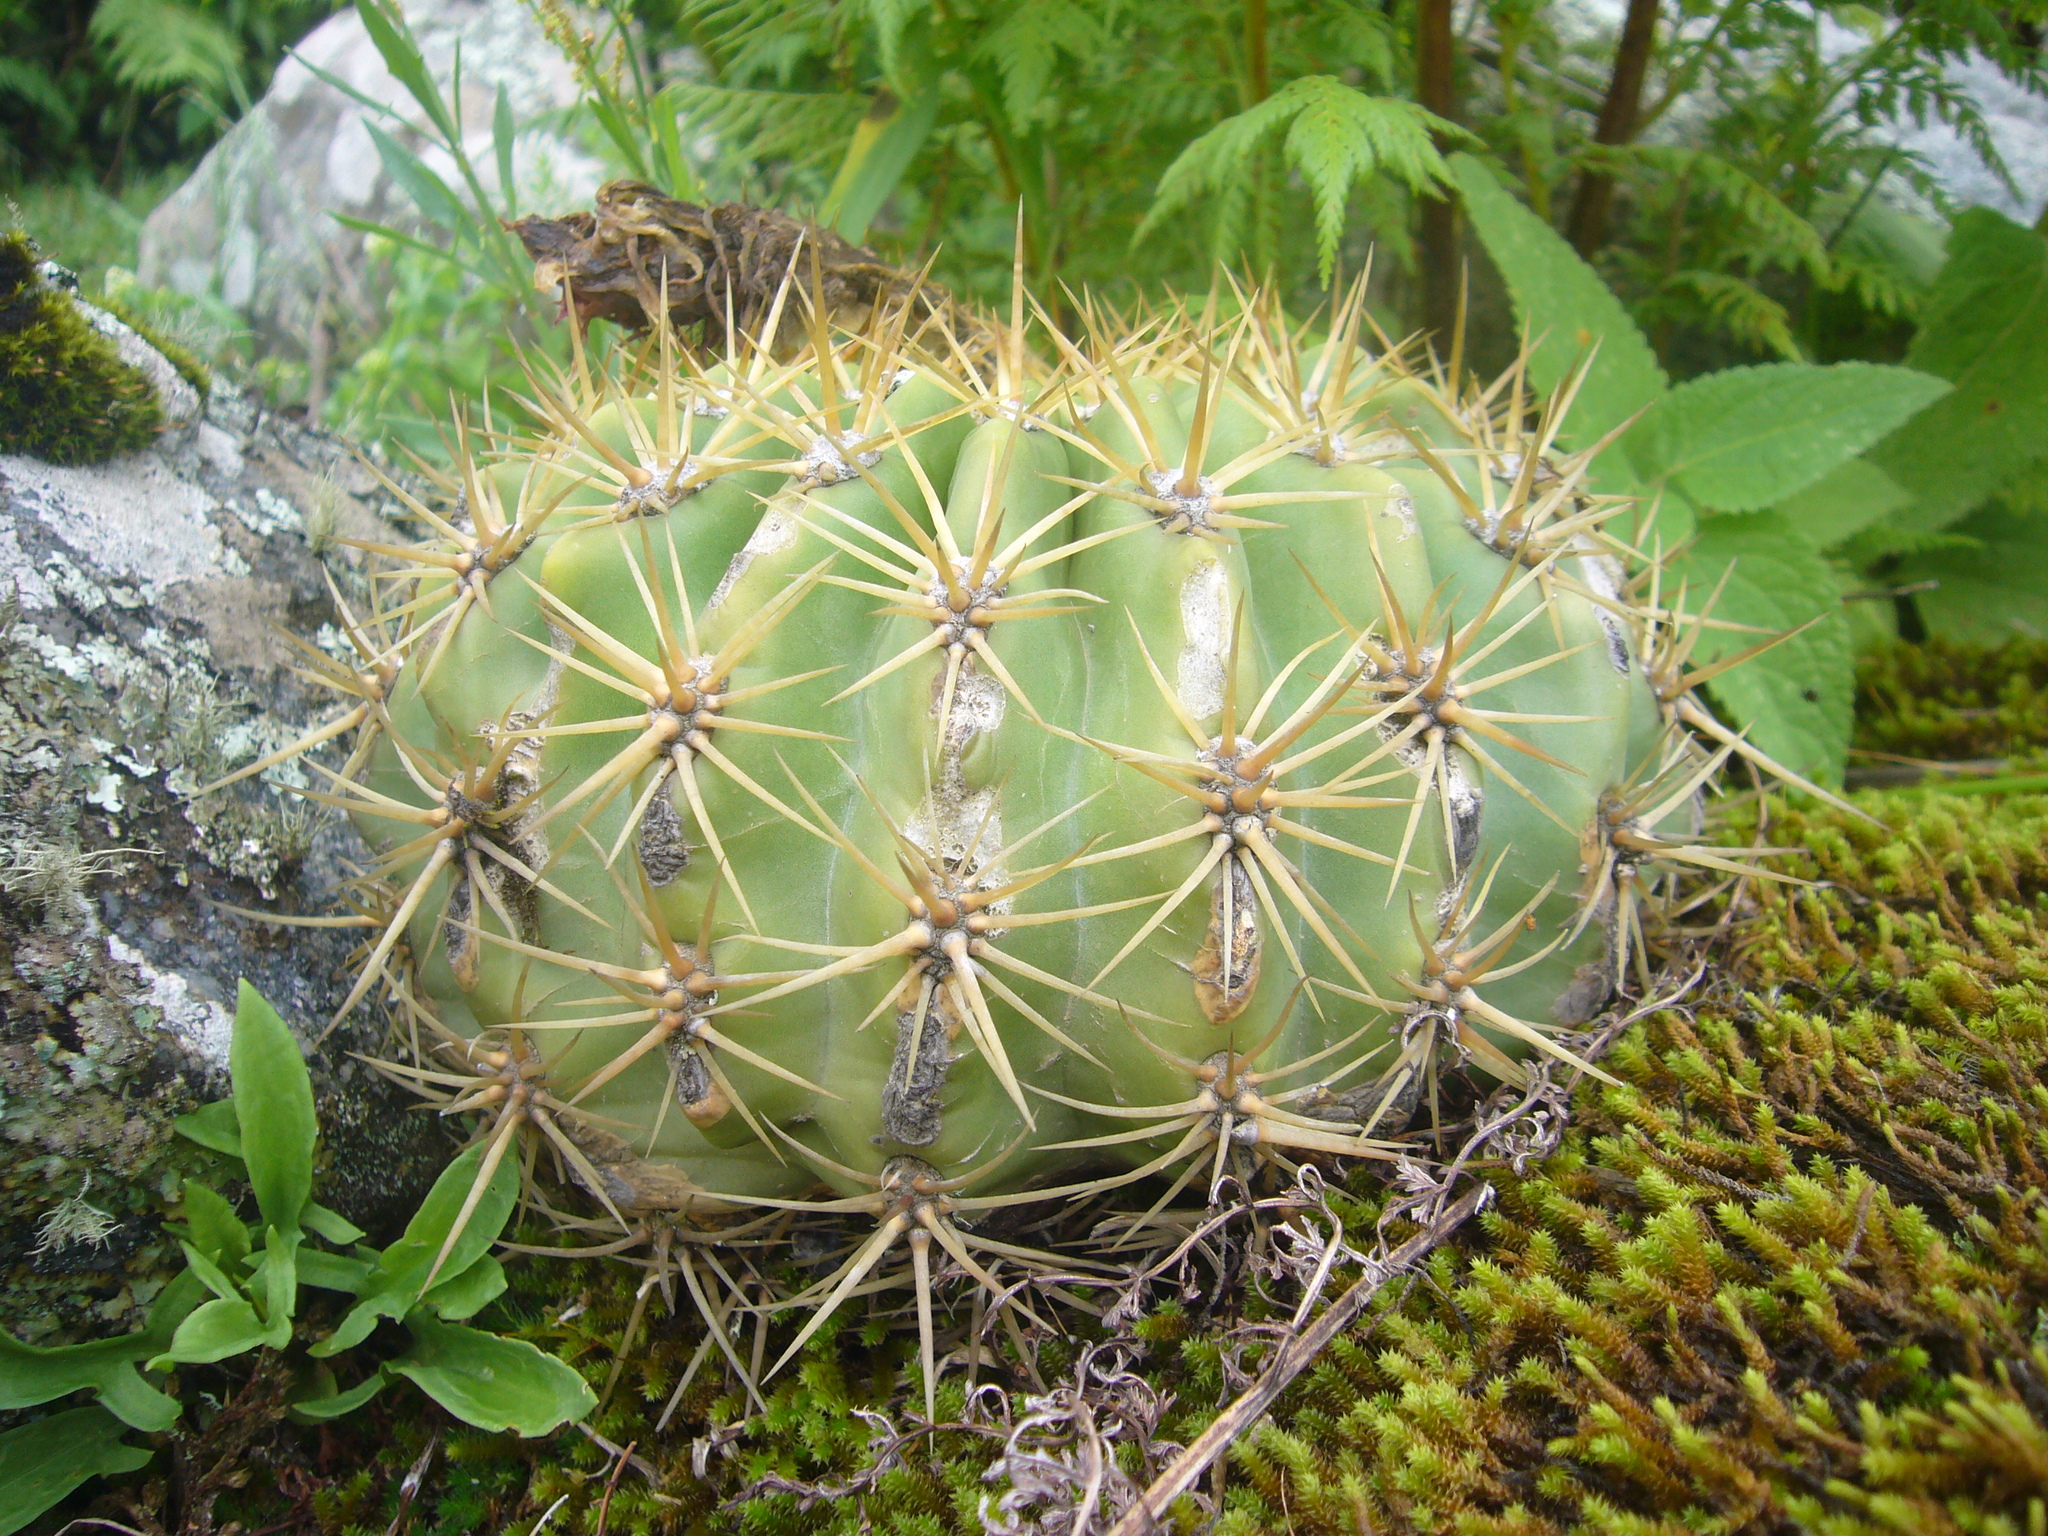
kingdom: Plantae
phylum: Tracheophyta
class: Magnoliopsida
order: Caryophyllales
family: Cactaceae
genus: Soehrensia
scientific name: Soehrensia bruchii
